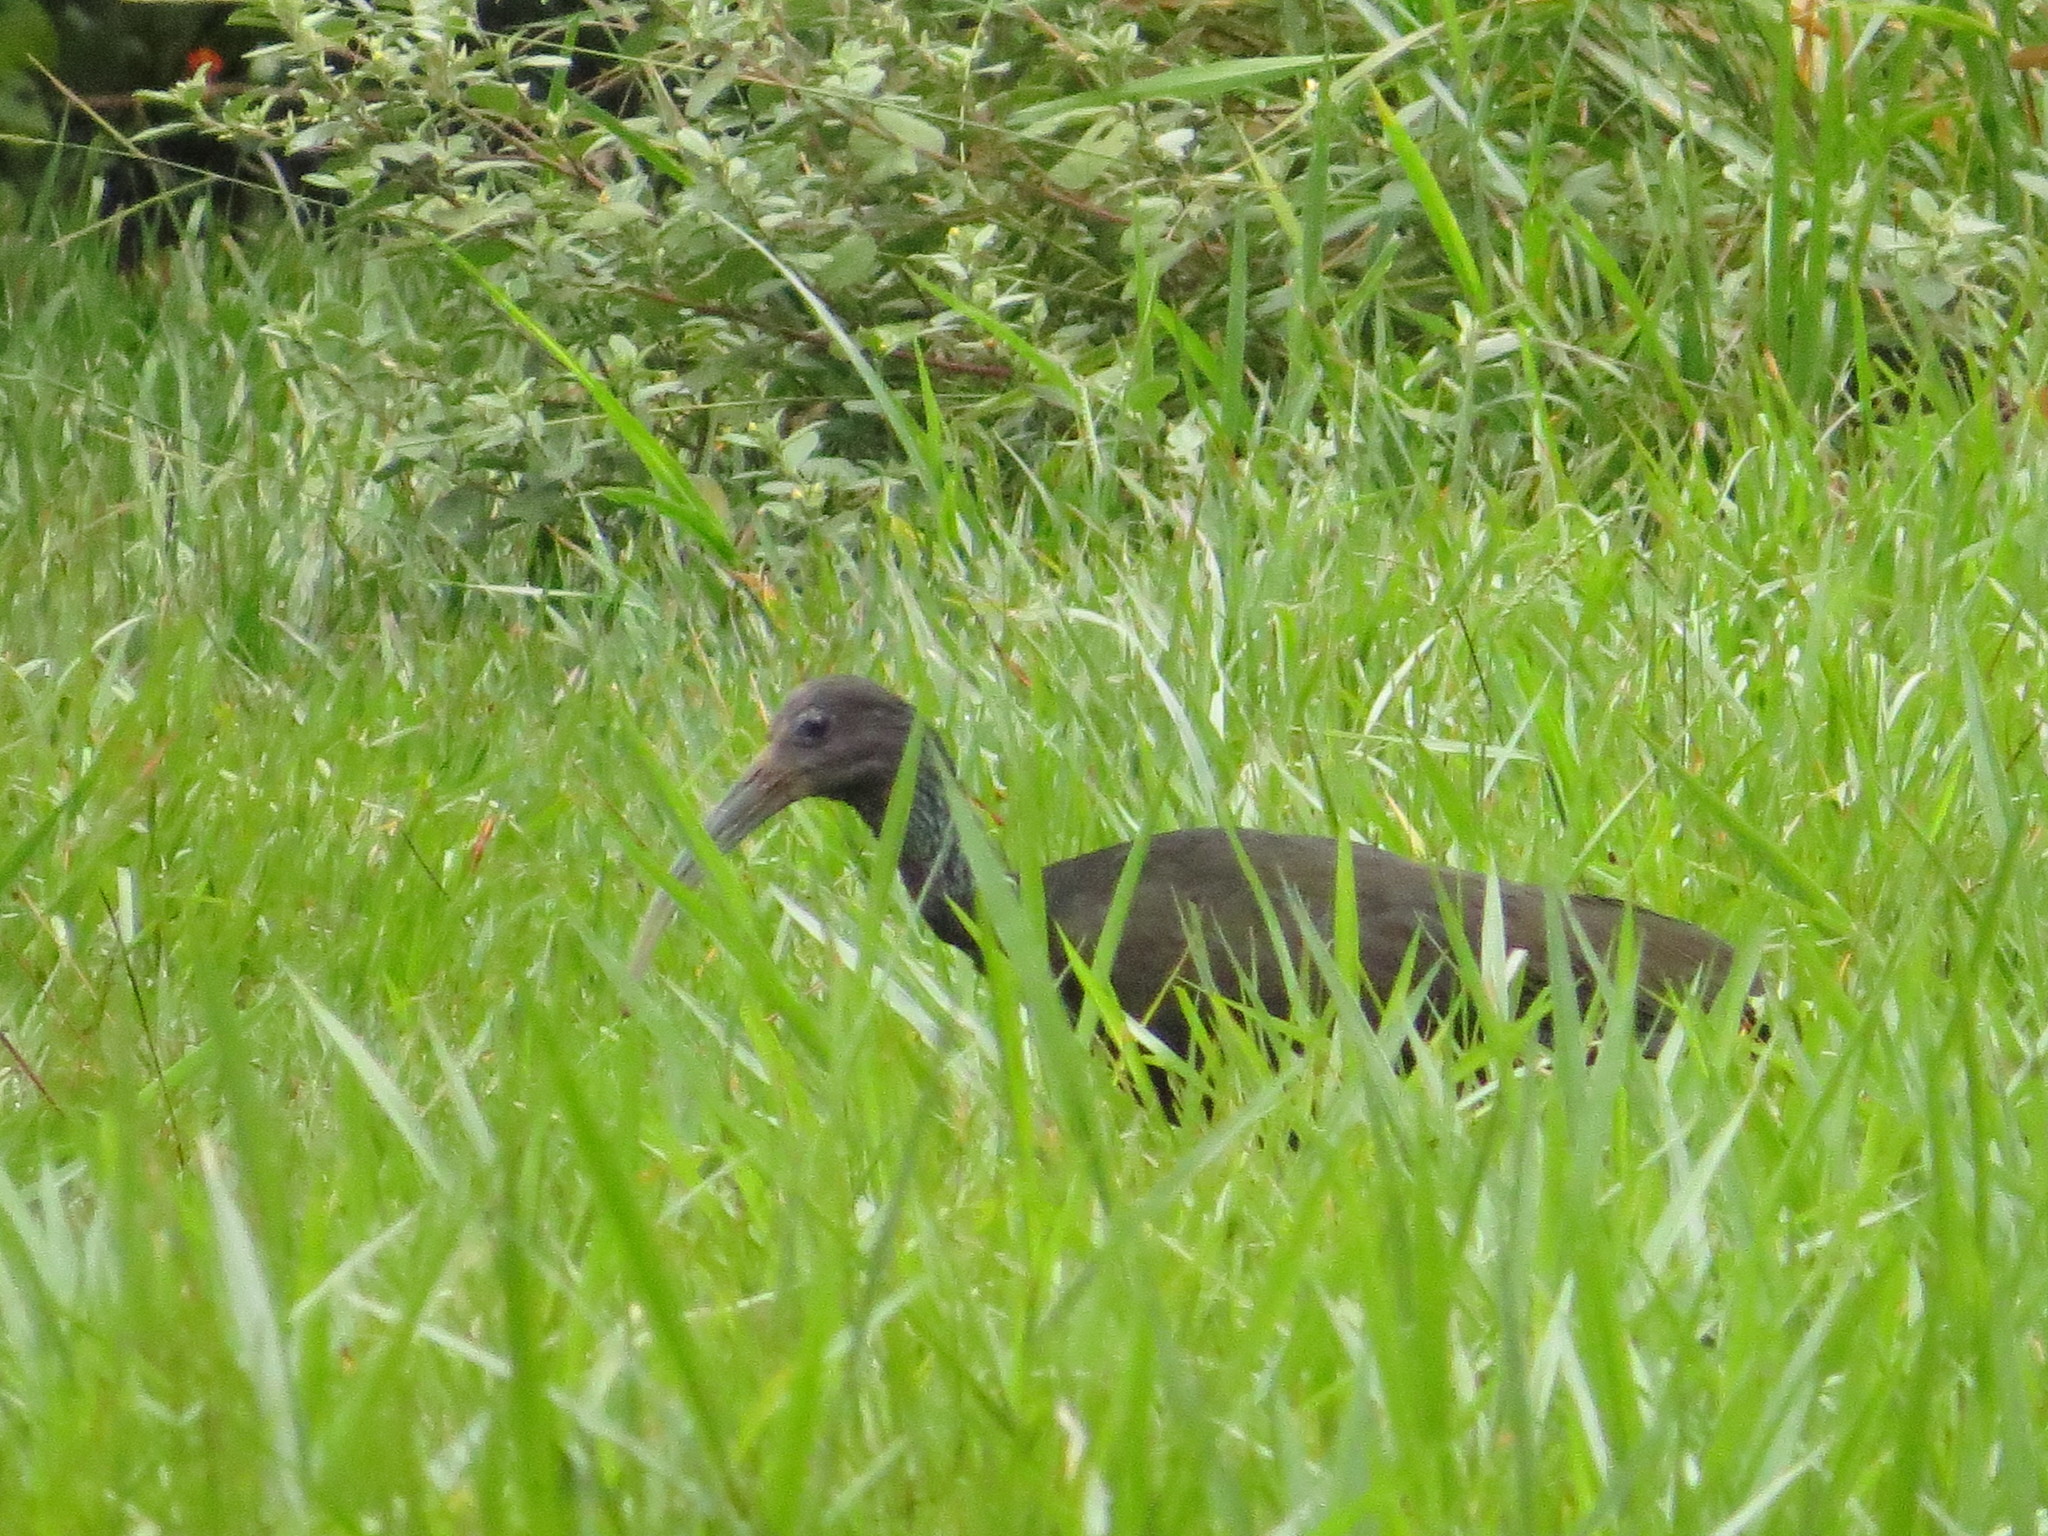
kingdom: Animalia
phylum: Chordata
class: Aves
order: Pelecaniformes
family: Threskiornithidae
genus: Mesembrinibis
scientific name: Mesembrinibis cayennensis
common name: Green ibis
